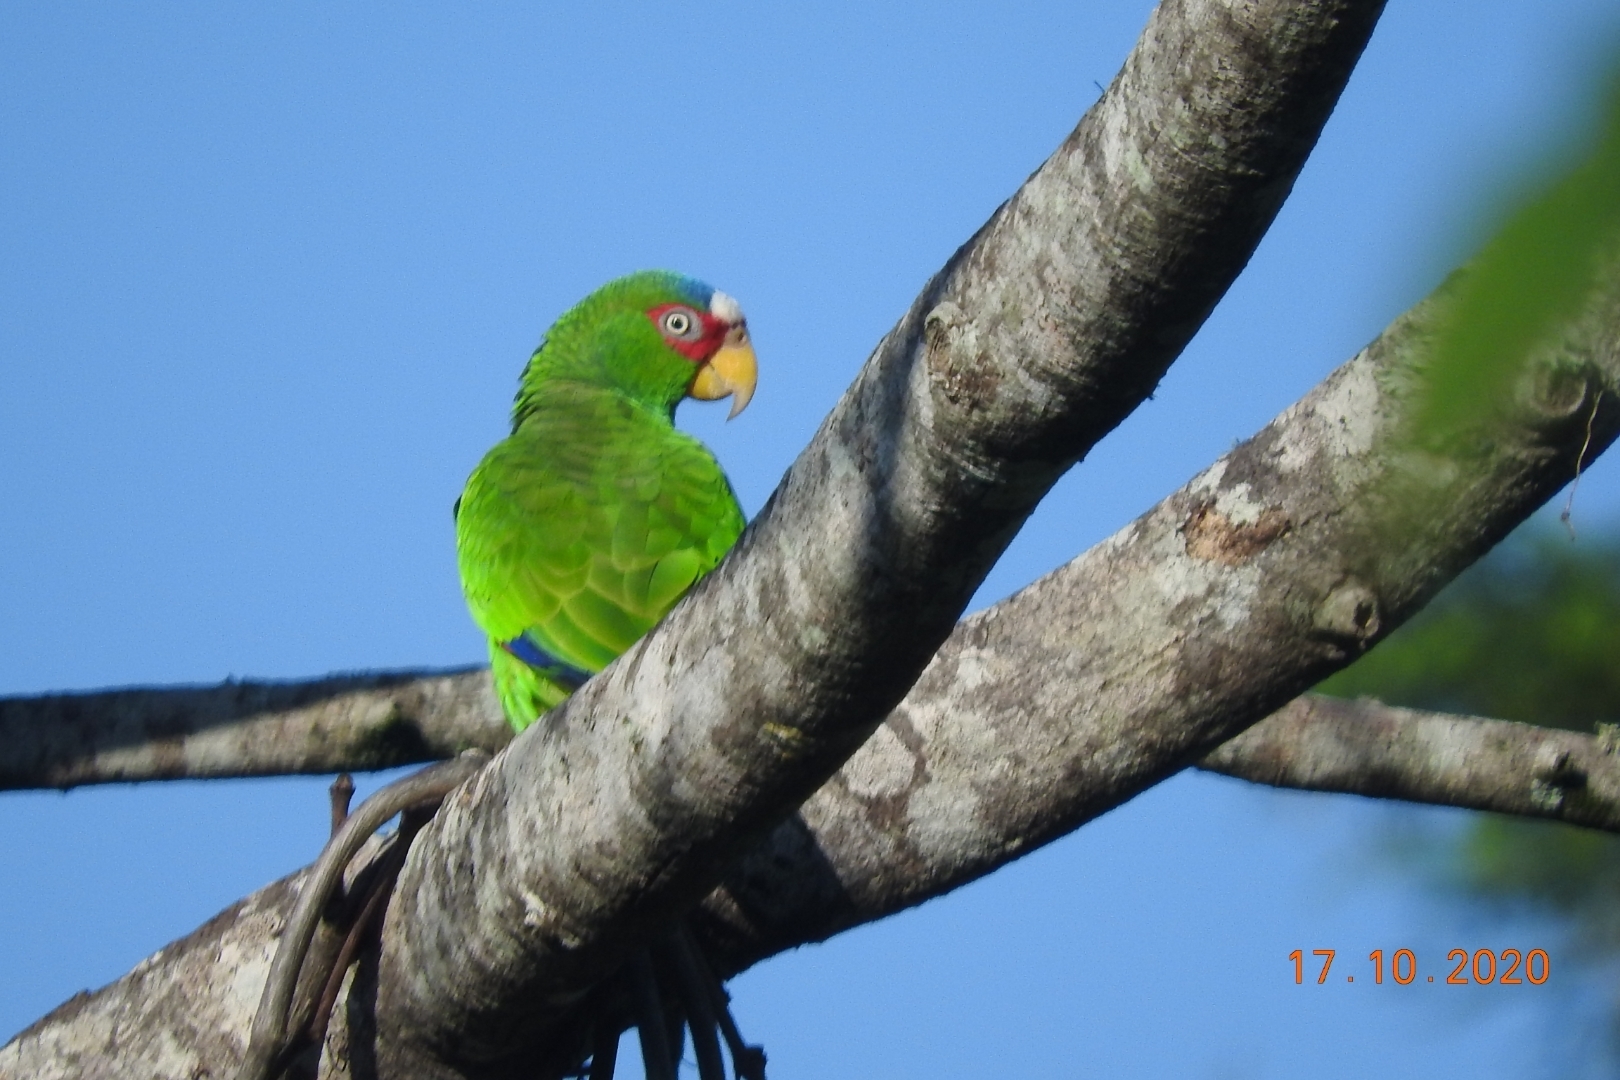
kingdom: Animalia
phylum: Chordata
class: Aves
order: Psittaciformes
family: Psittacidae
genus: Amazona
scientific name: Amazona albifrons
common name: White-fronted amazon
